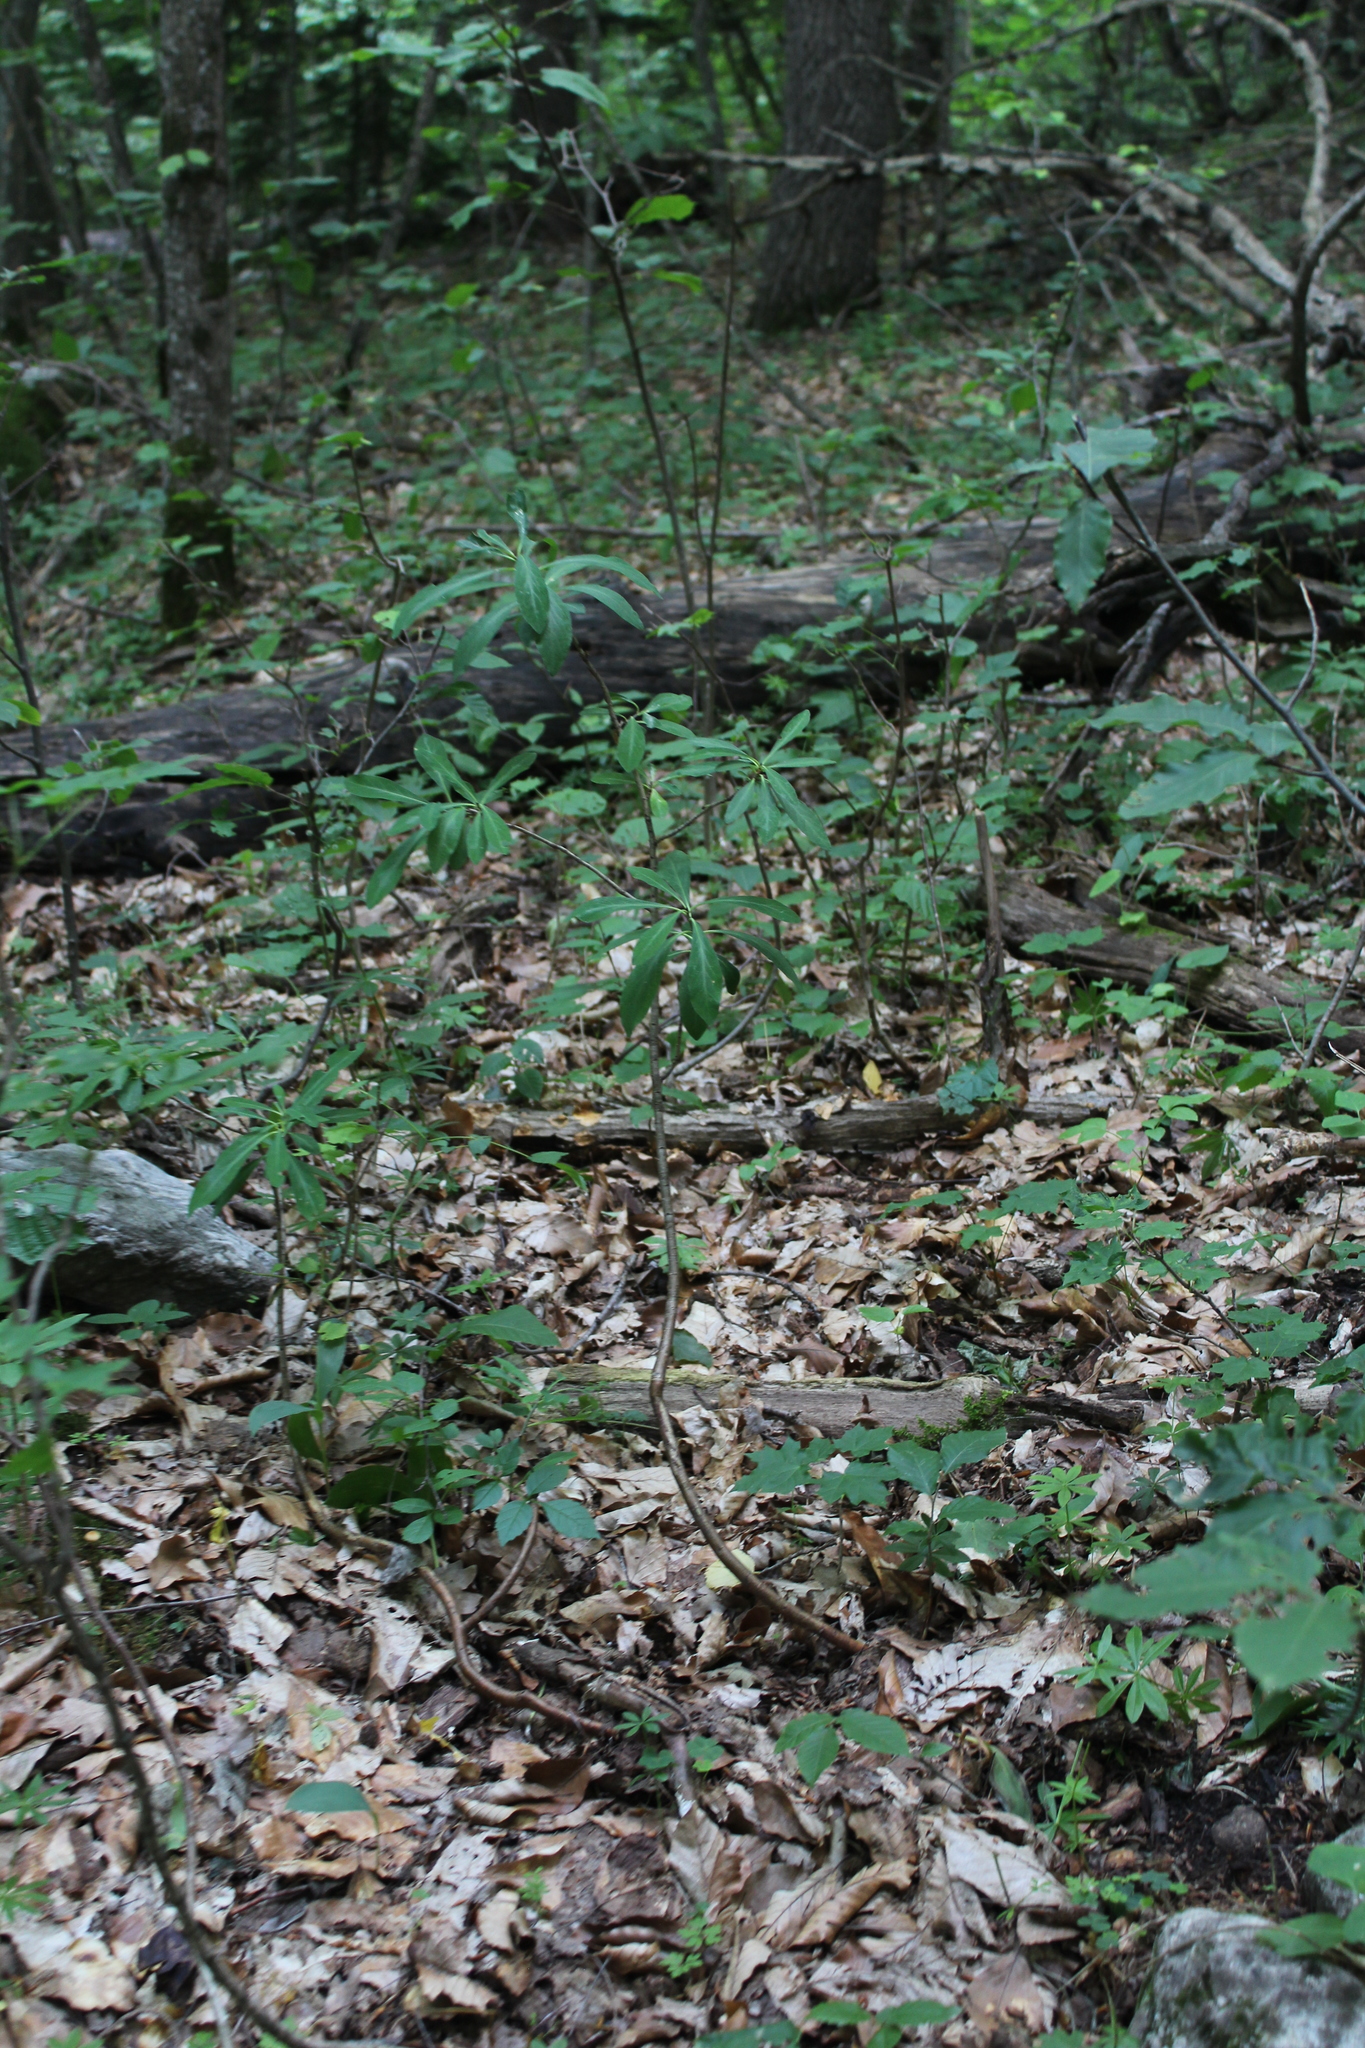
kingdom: Plantae
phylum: Tracheophyta
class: Magnoliopsida
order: Malvales
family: Thymelaeaceae
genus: Daphne
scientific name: Daphne mezereum
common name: Mezereon
